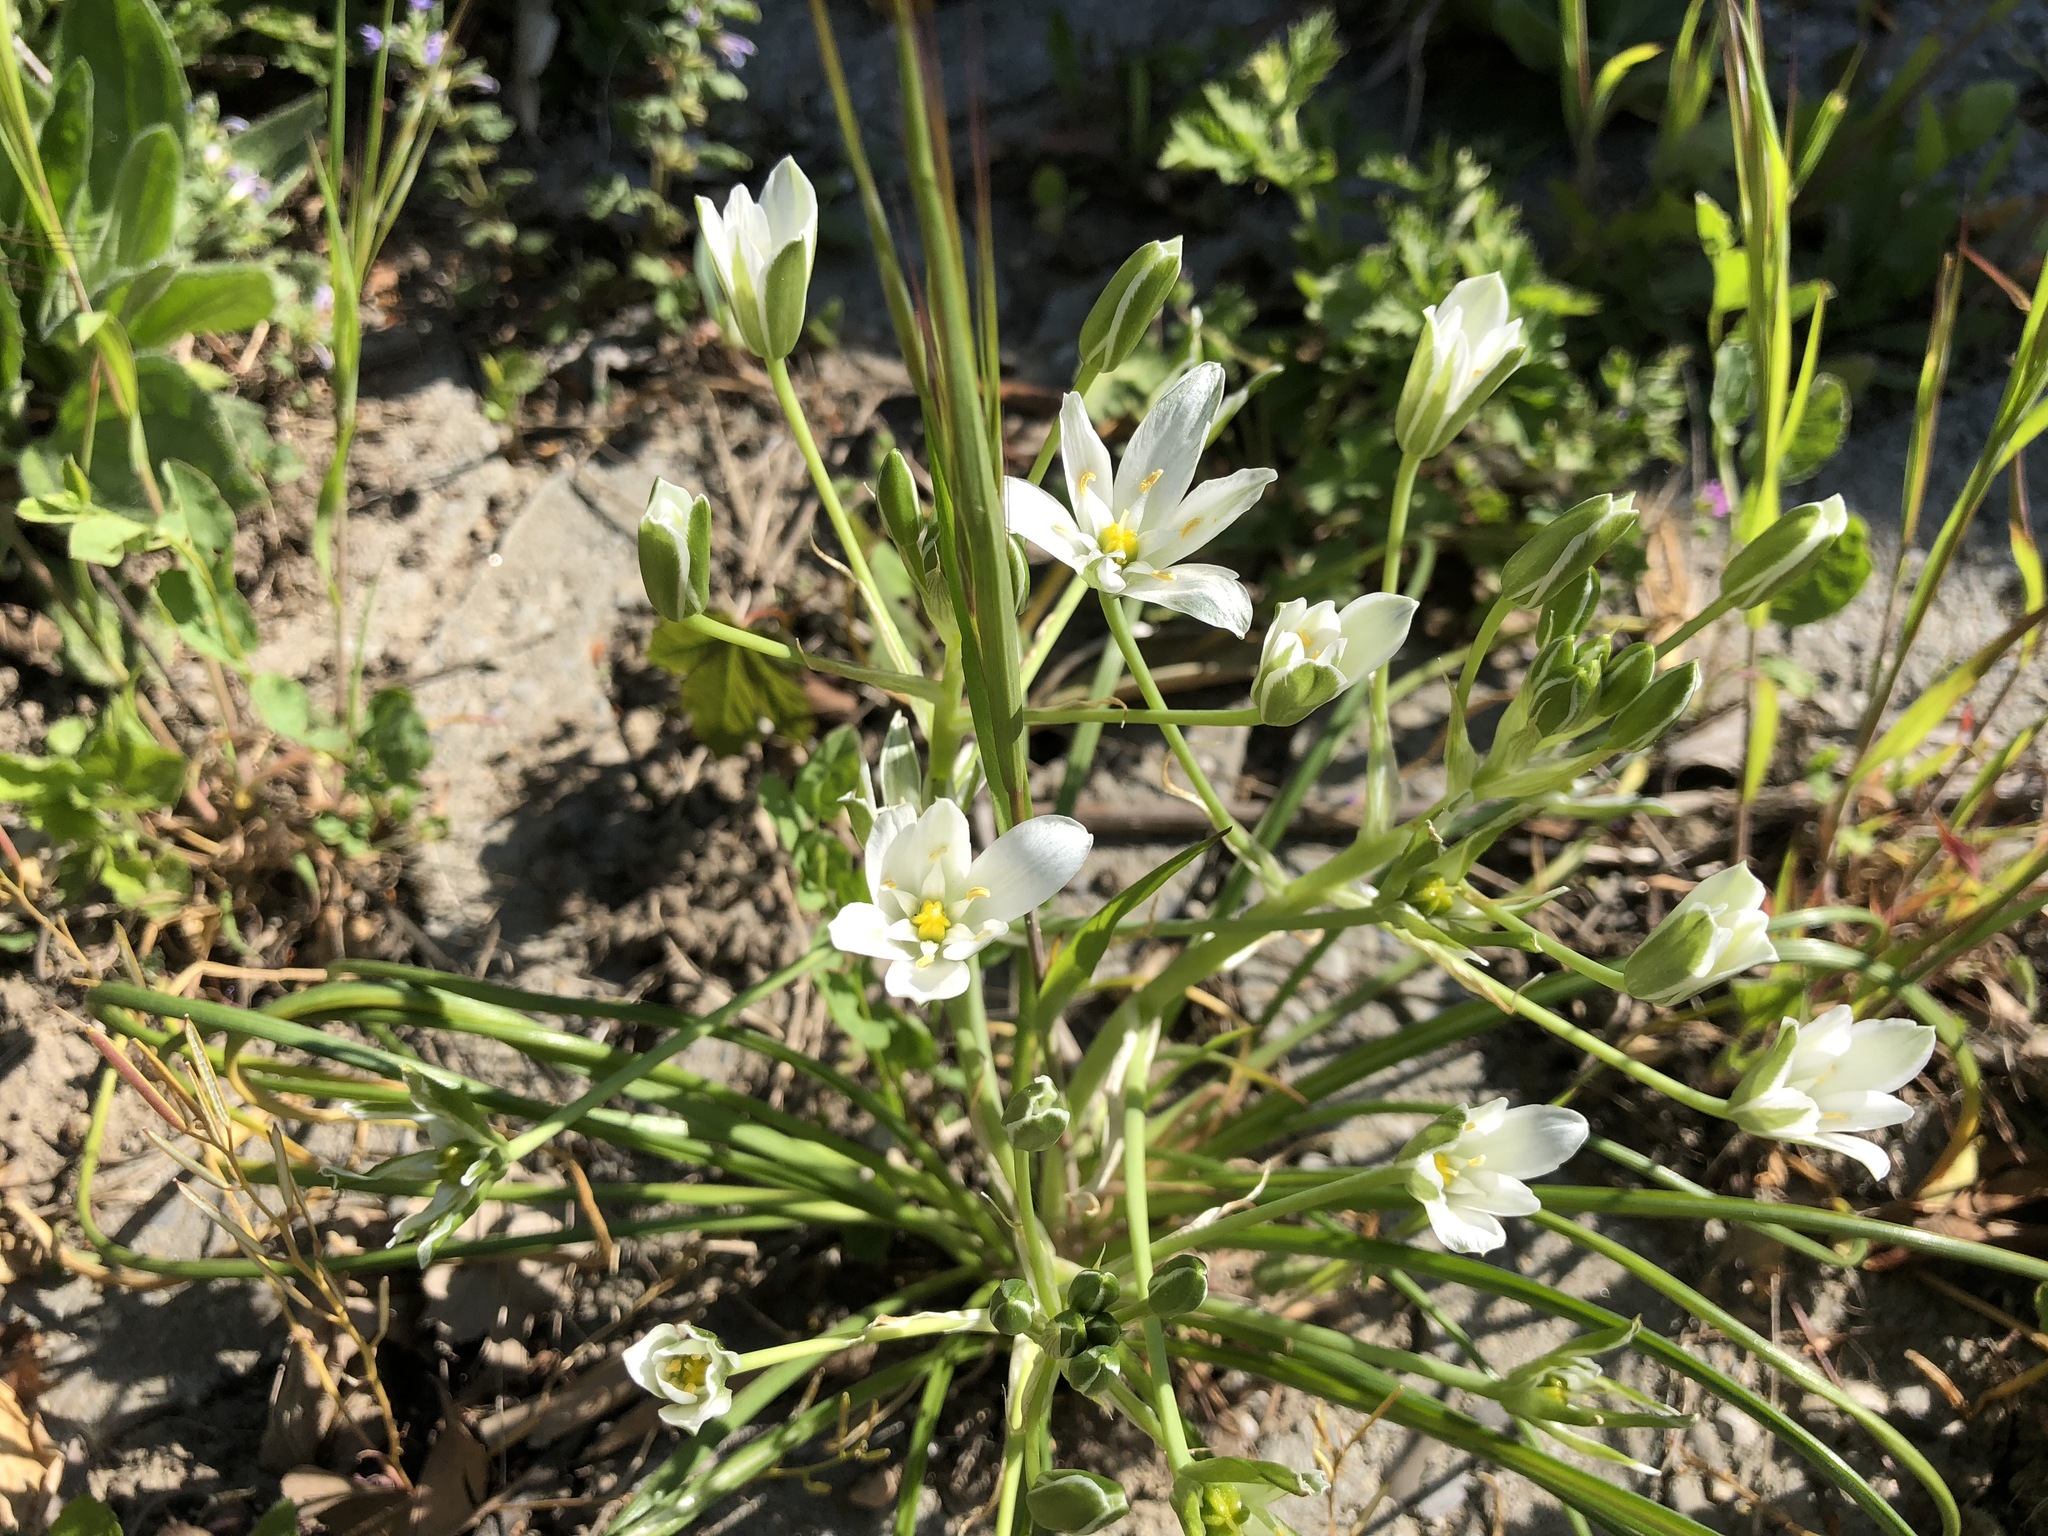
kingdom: Plantae
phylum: Tracheophyta
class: Liliopsida
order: Asparagales
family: Asparagaceae
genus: Ornithogalum
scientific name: Ornithogalum umbellatum
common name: Garden star-of-bethlehem
